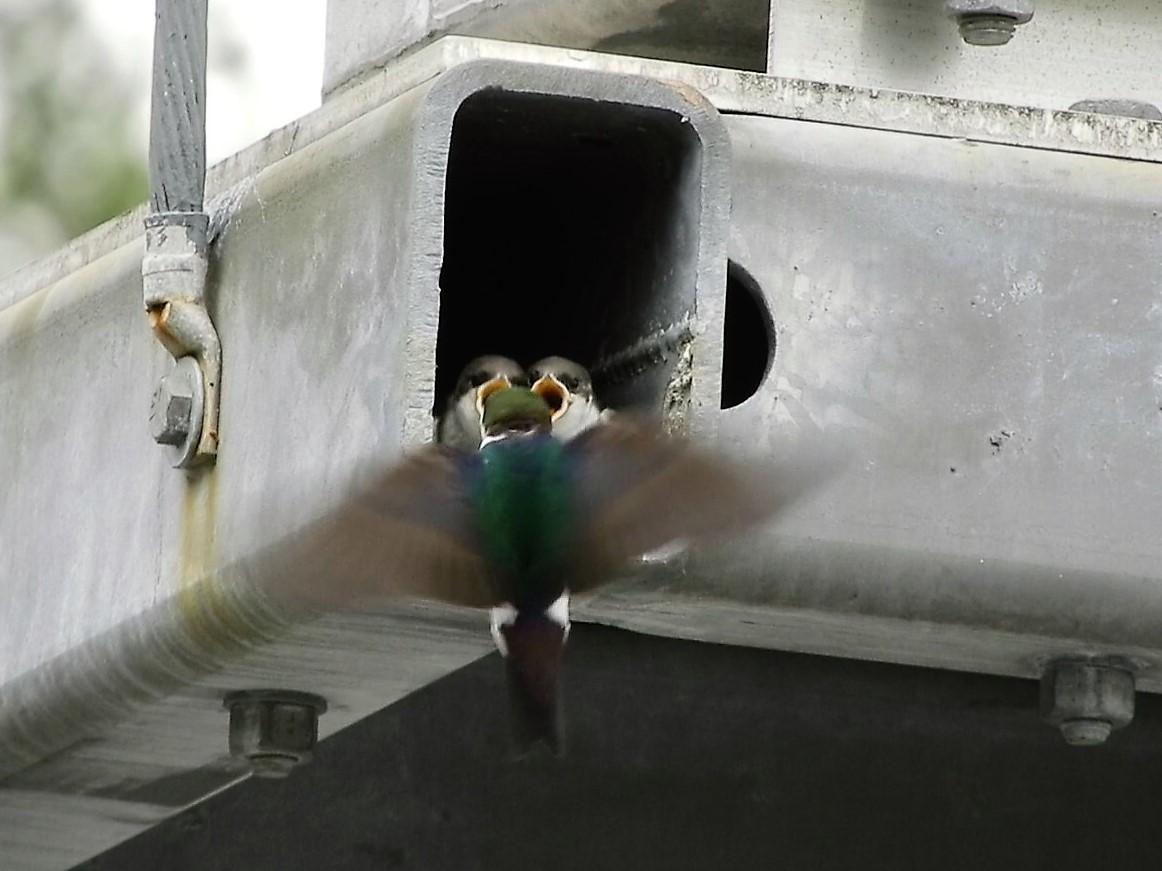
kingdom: Animalia
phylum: Chordata
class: Aves
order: Passeriformes
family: Hirundinidae
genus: Tachycineta
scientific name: Tachycineta thalassina
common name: Violet-green swallow
